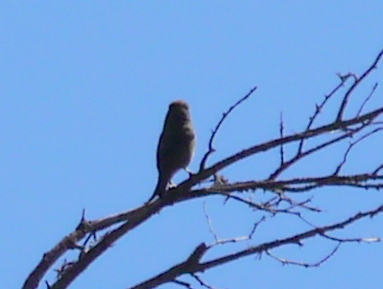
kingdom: Animalia
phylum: Chordata
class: Aves
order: Passeriformes
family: Fringillidae
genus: Loxia
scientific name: Loxia curvirostra
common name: Red crossbill
